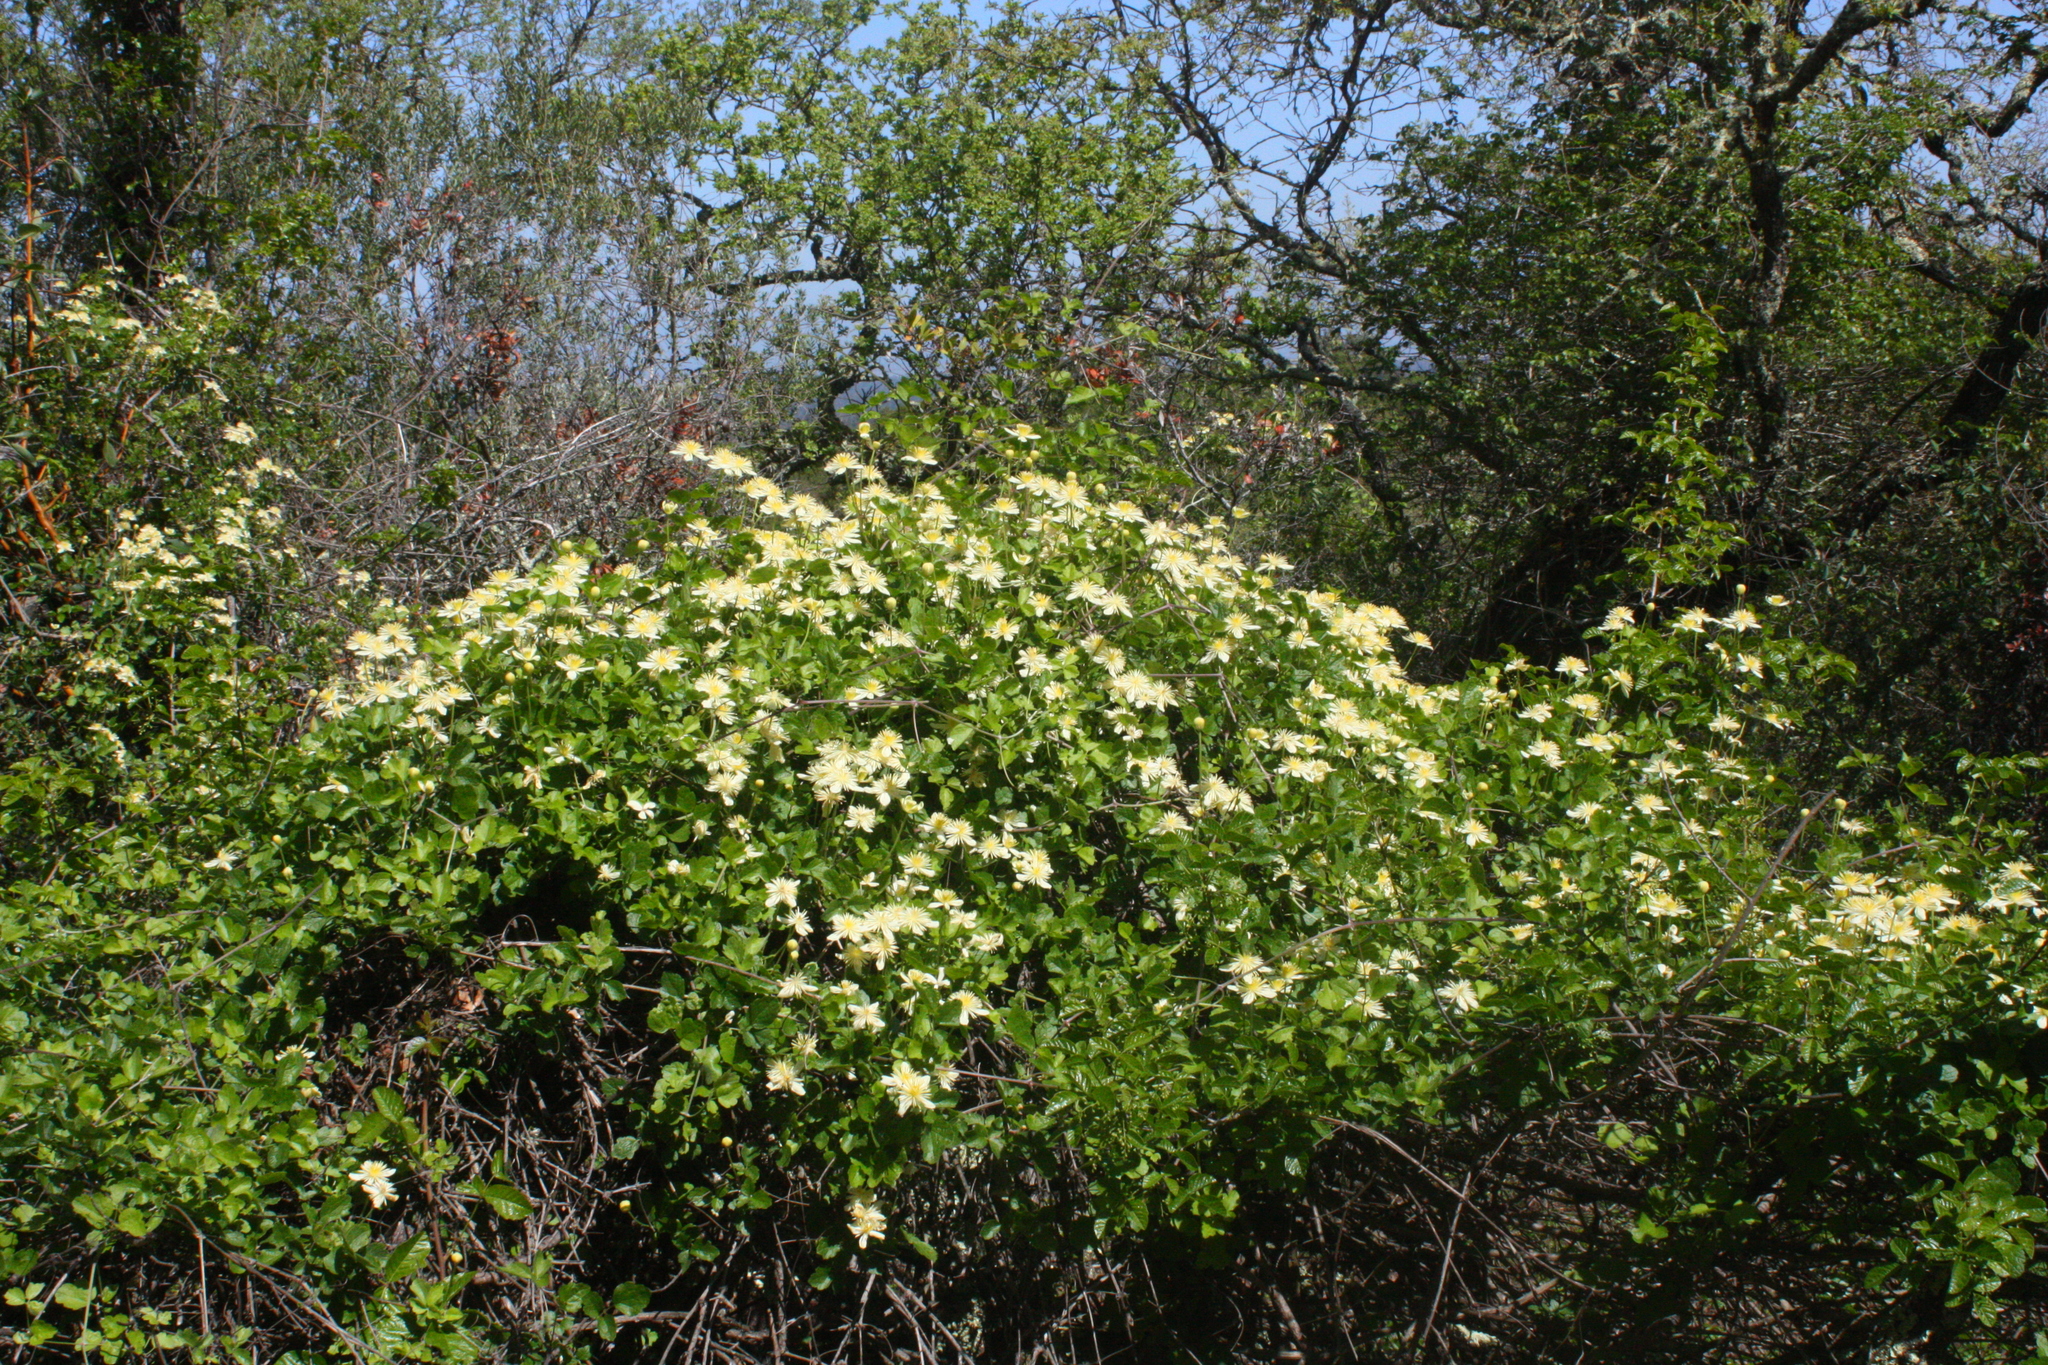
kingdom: Plantae
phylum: Tracheophyta
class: Magnoliopsida
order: Ranunculales
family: Ranunculaceae
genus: Clematis
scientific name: Clematis lasiantha
